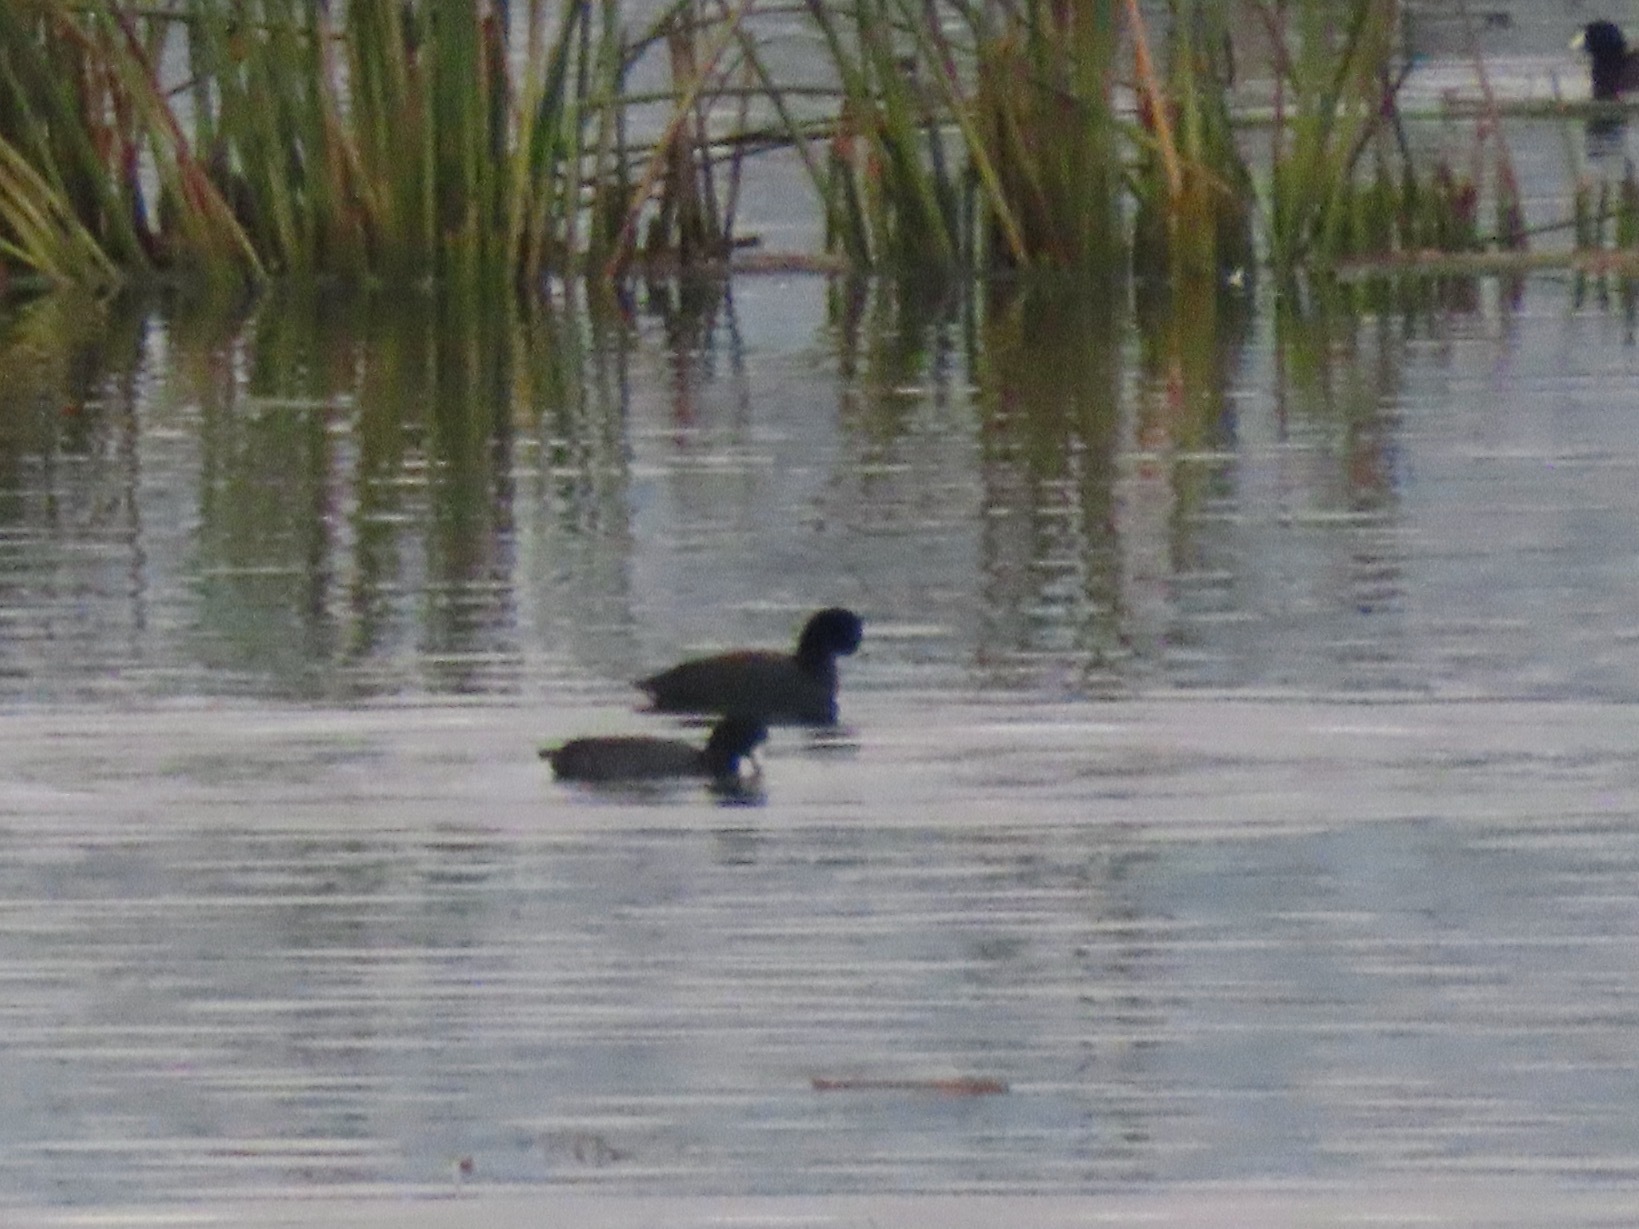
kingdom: Animalia
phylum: Chordata
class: Aves
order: Gruiformes
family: Rallidae
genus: Fulica
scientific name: Fulica americana
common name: American coot
